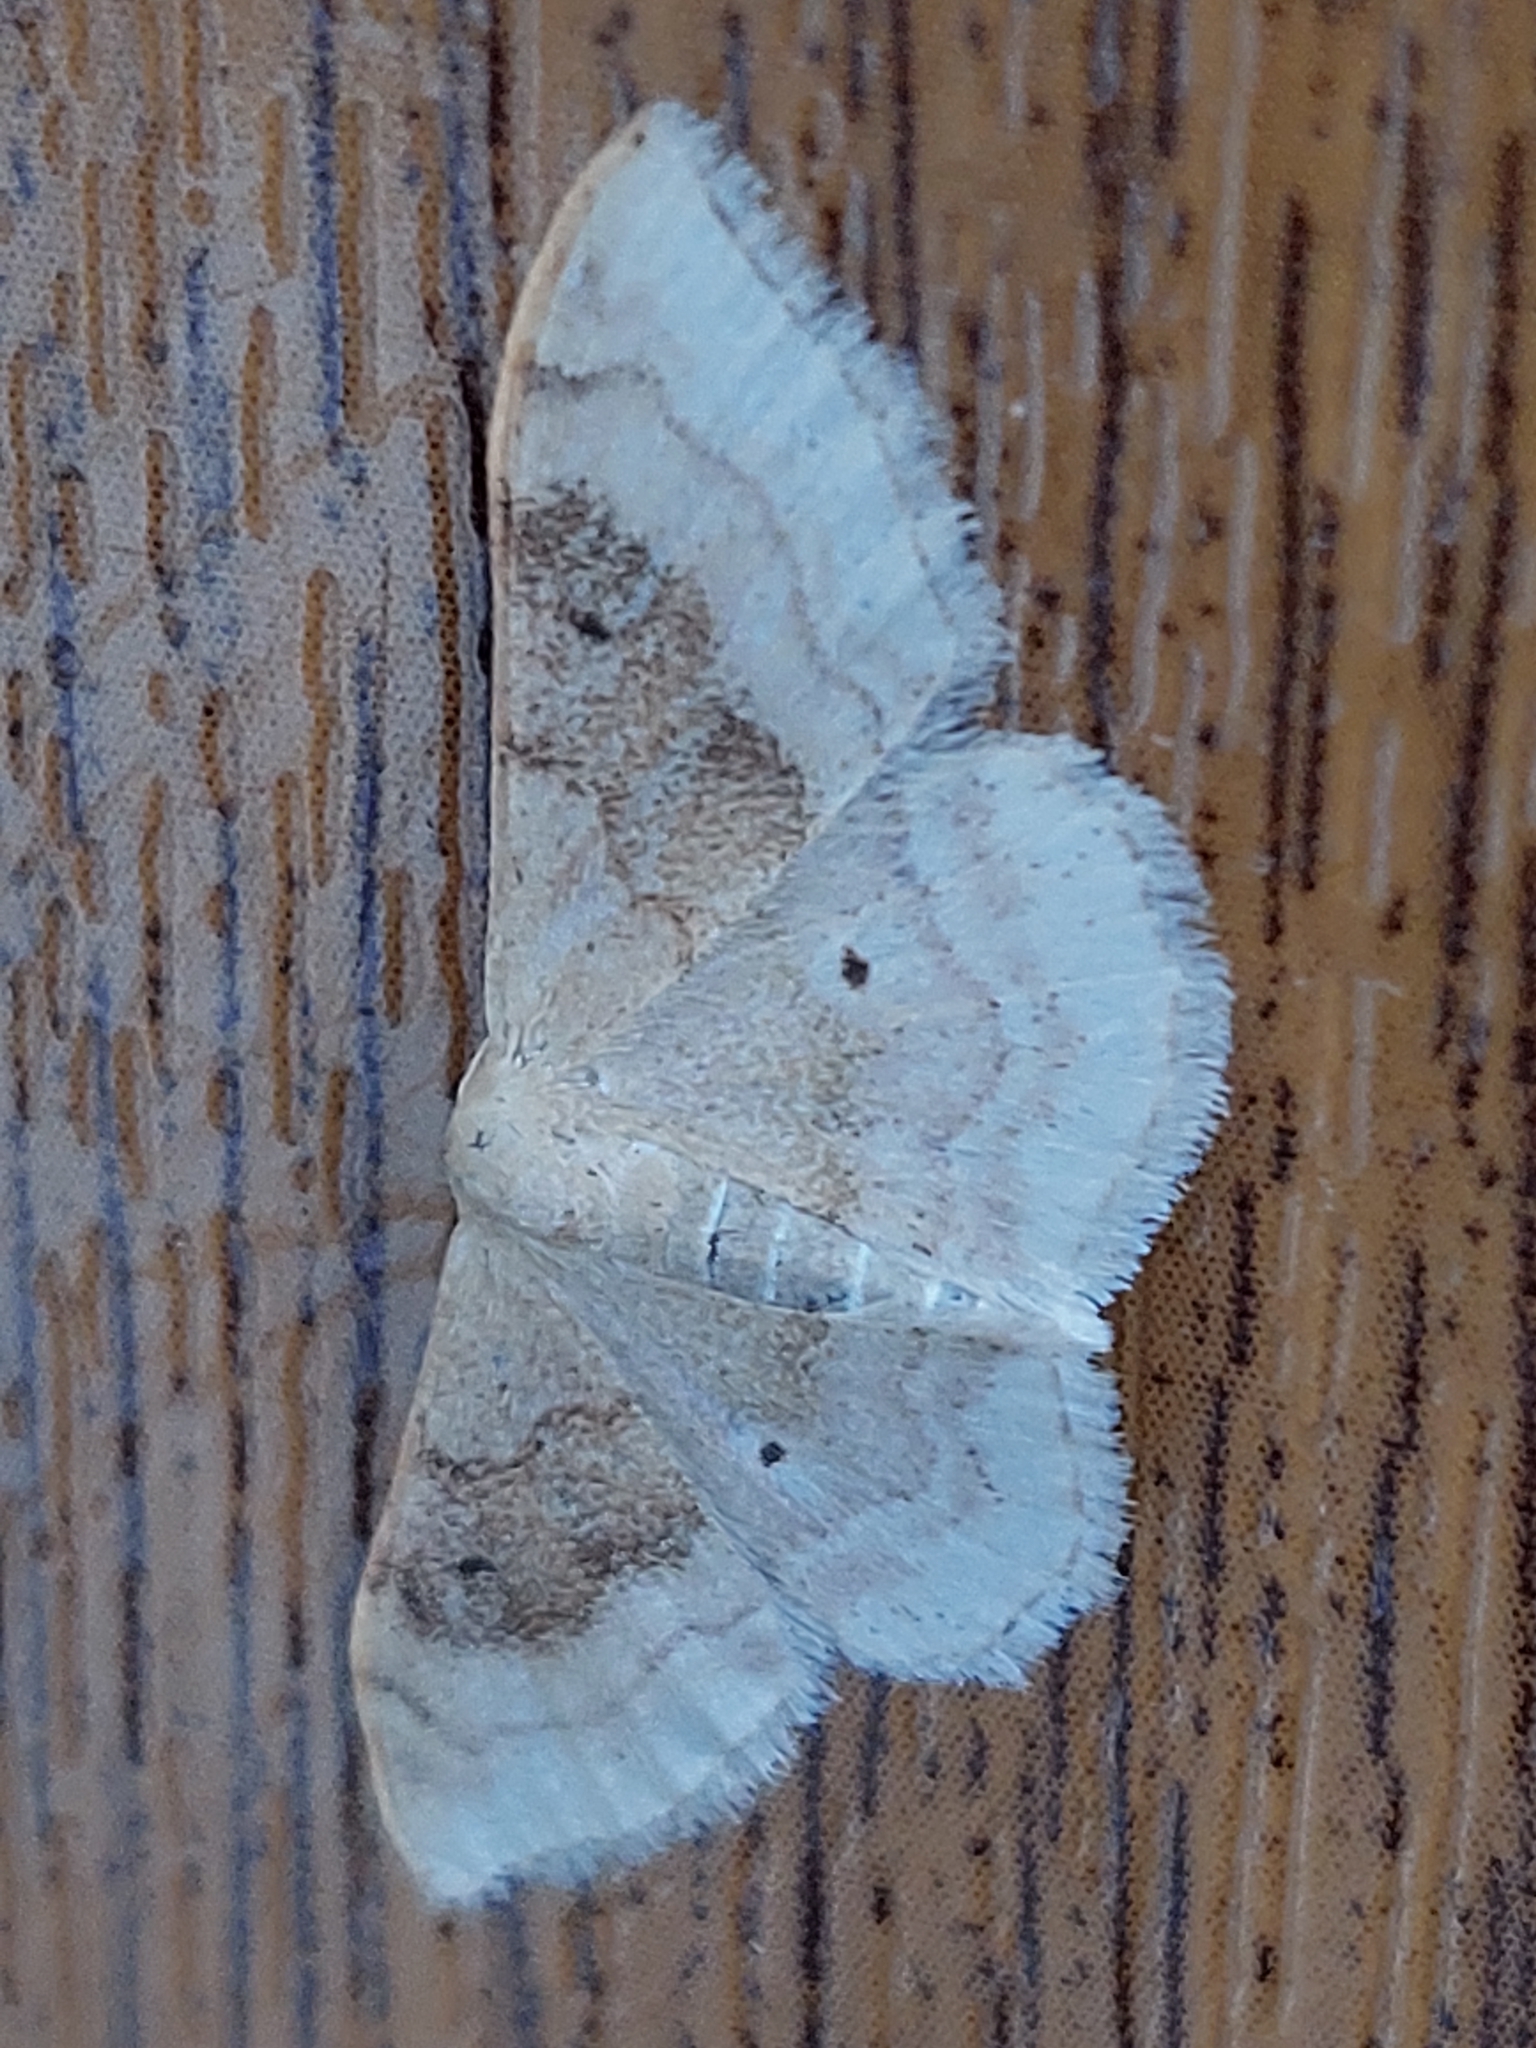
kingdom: Animalia
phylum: Arthropoda
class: Insecta
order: Lepidoptera
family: Geometridae
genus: Idaea
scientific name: Idaea degeneraria
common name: Portland ribbon wave
